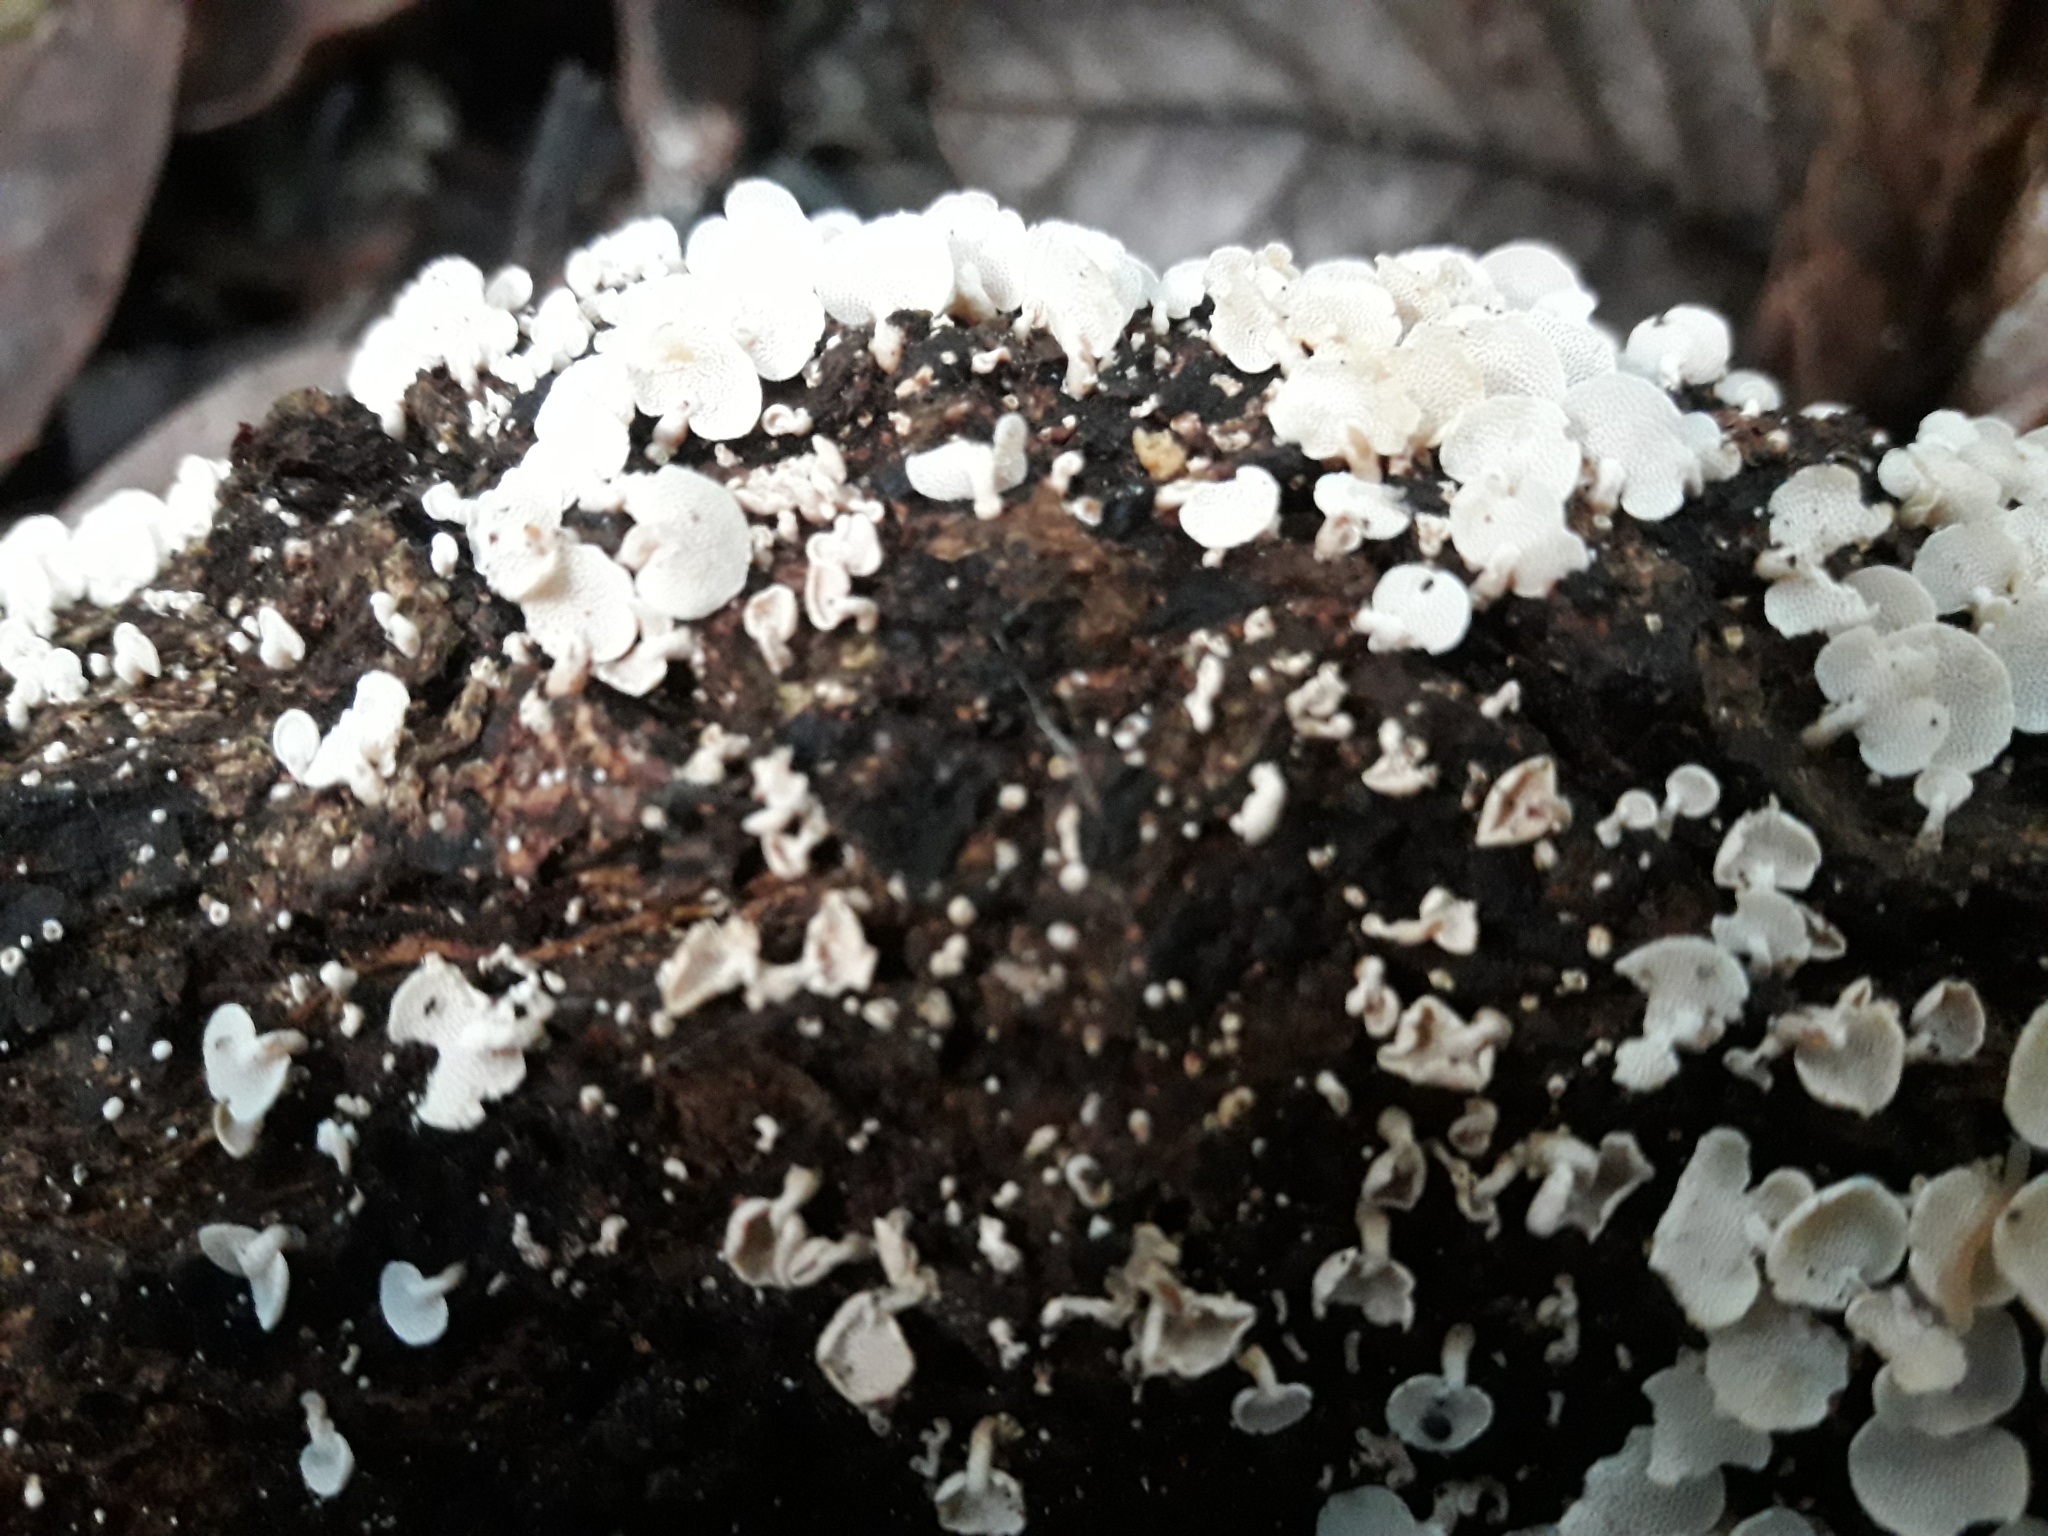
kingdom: Fungi
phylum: Basidiomycota
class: Agaricomycetes
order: Agaricales
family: Mycenaceae
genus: Panellus
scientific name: Panellus luxfilamentus
